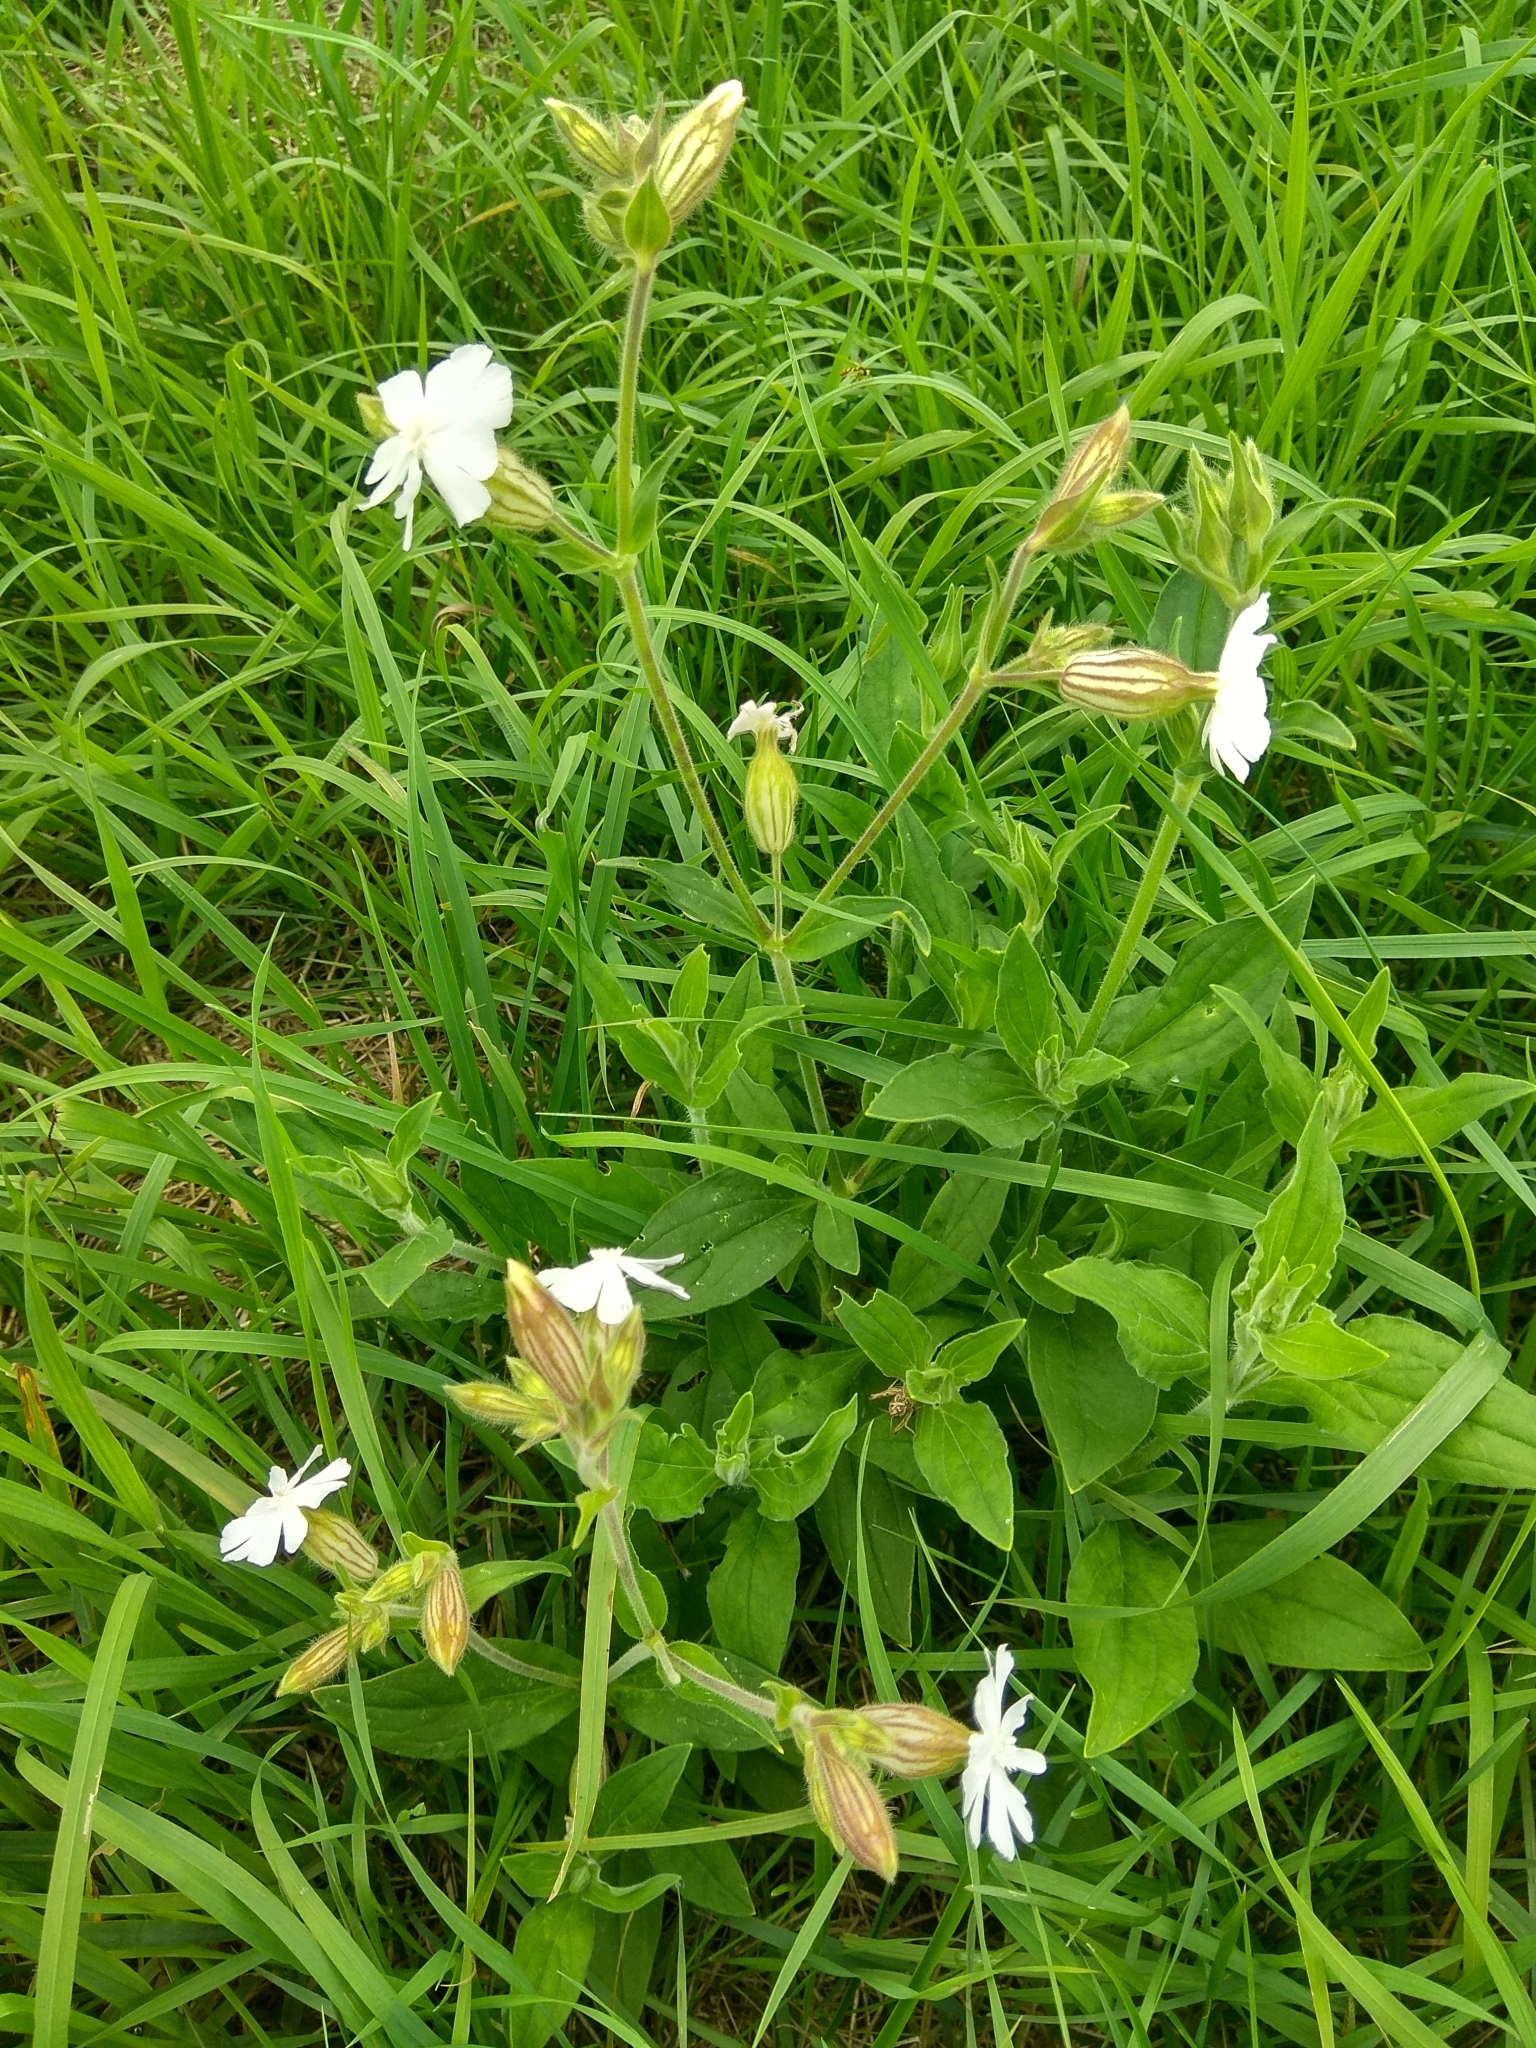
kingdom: Plantae
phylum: Tracheophyta
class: Magnoliopsida
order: Caryophyllales
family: Caryophyllaceae
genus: Silene
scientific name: Silene latifolia
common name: White campion
